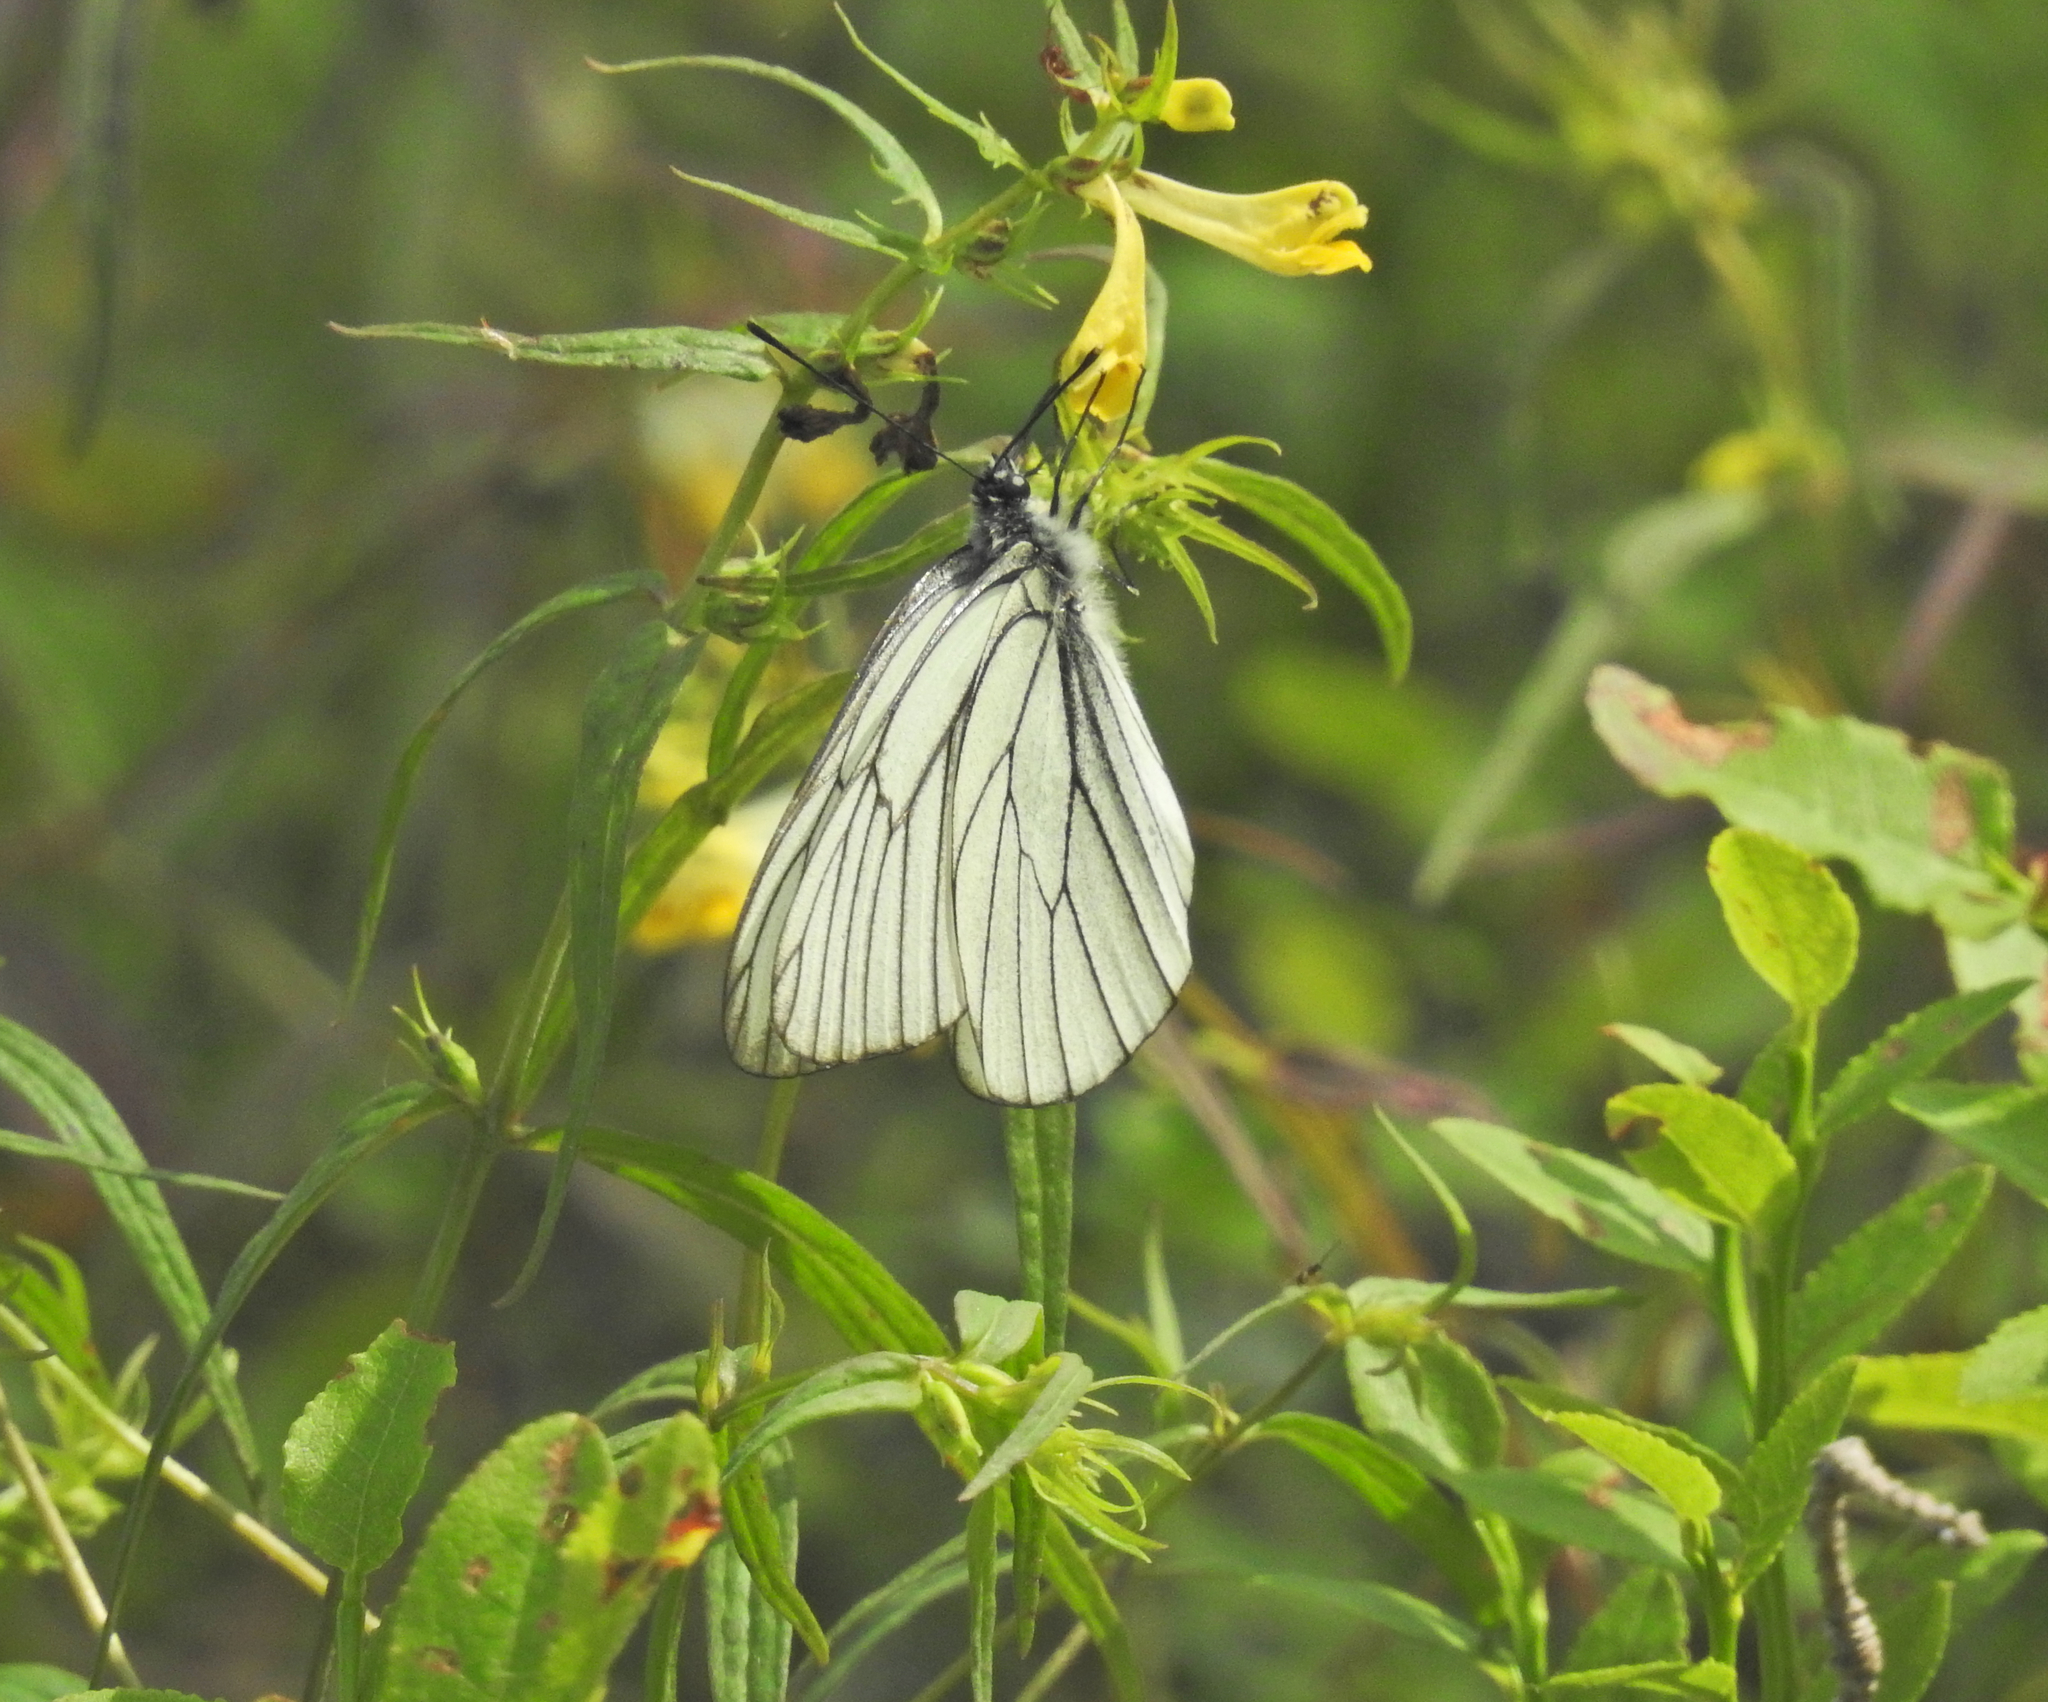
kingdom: Animalia
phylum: Arthropoda
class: Insecta
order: Lepidoptera
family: Pieridae
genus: Aporia
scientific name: Aporia crataegi
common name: Black-veined white
